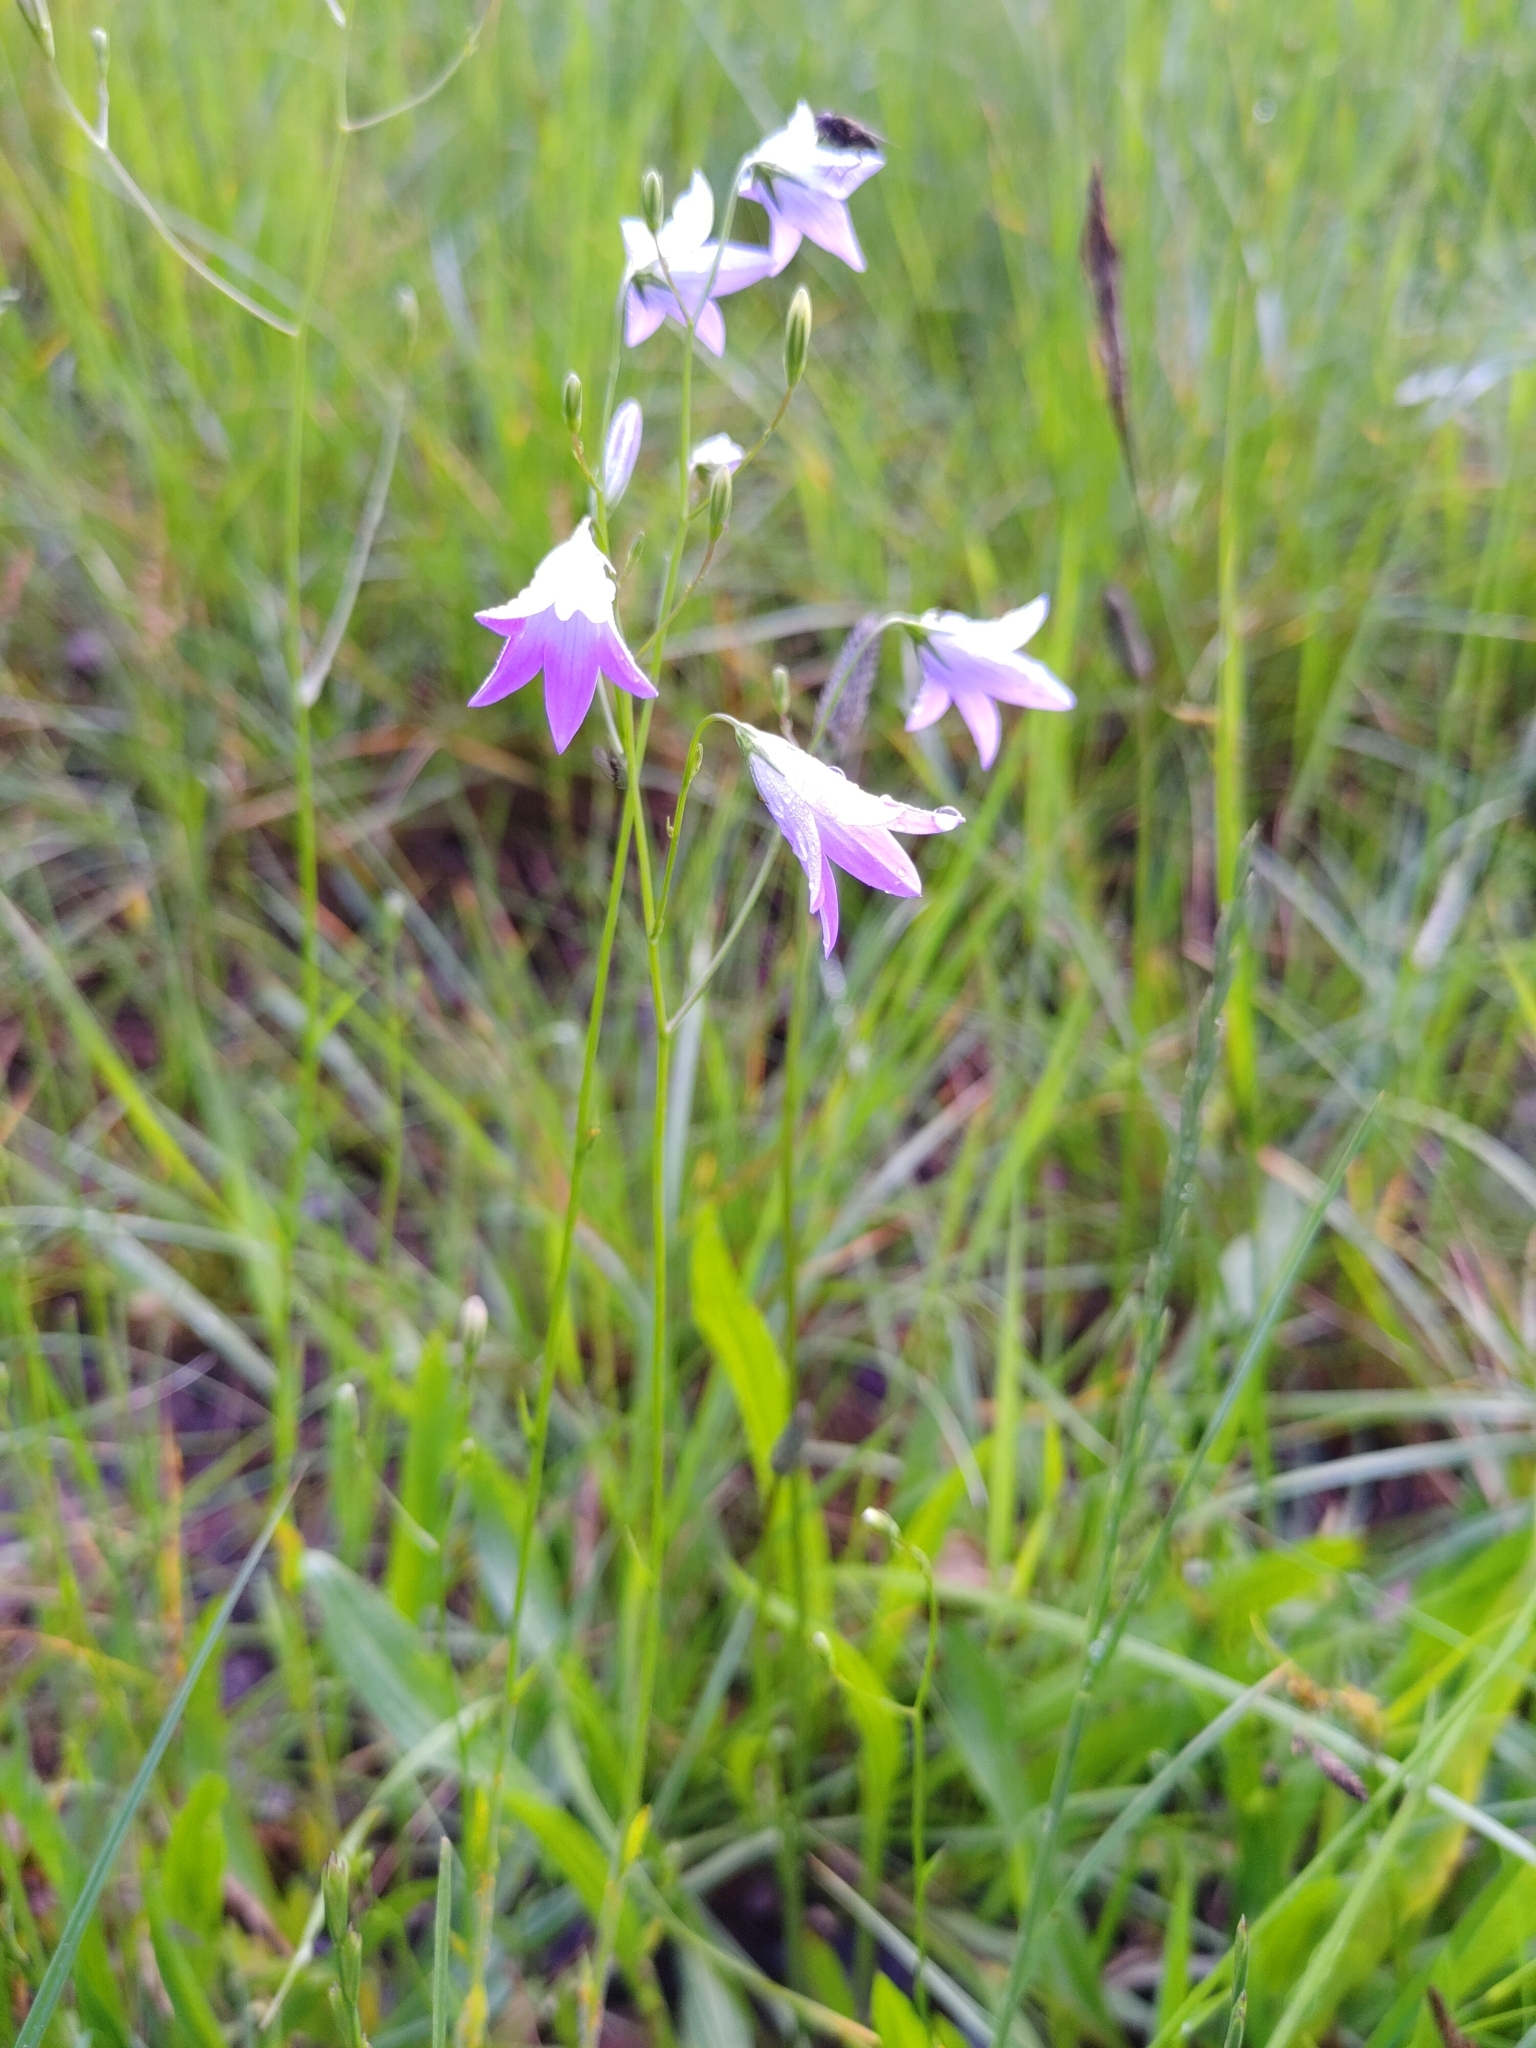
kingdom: Plantae
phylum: Tracheophyta
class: Magnoliopsida
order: Asterales
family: Campanulaceae
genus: Campanula
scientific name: Campanula patula
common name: Spreading bellflower
